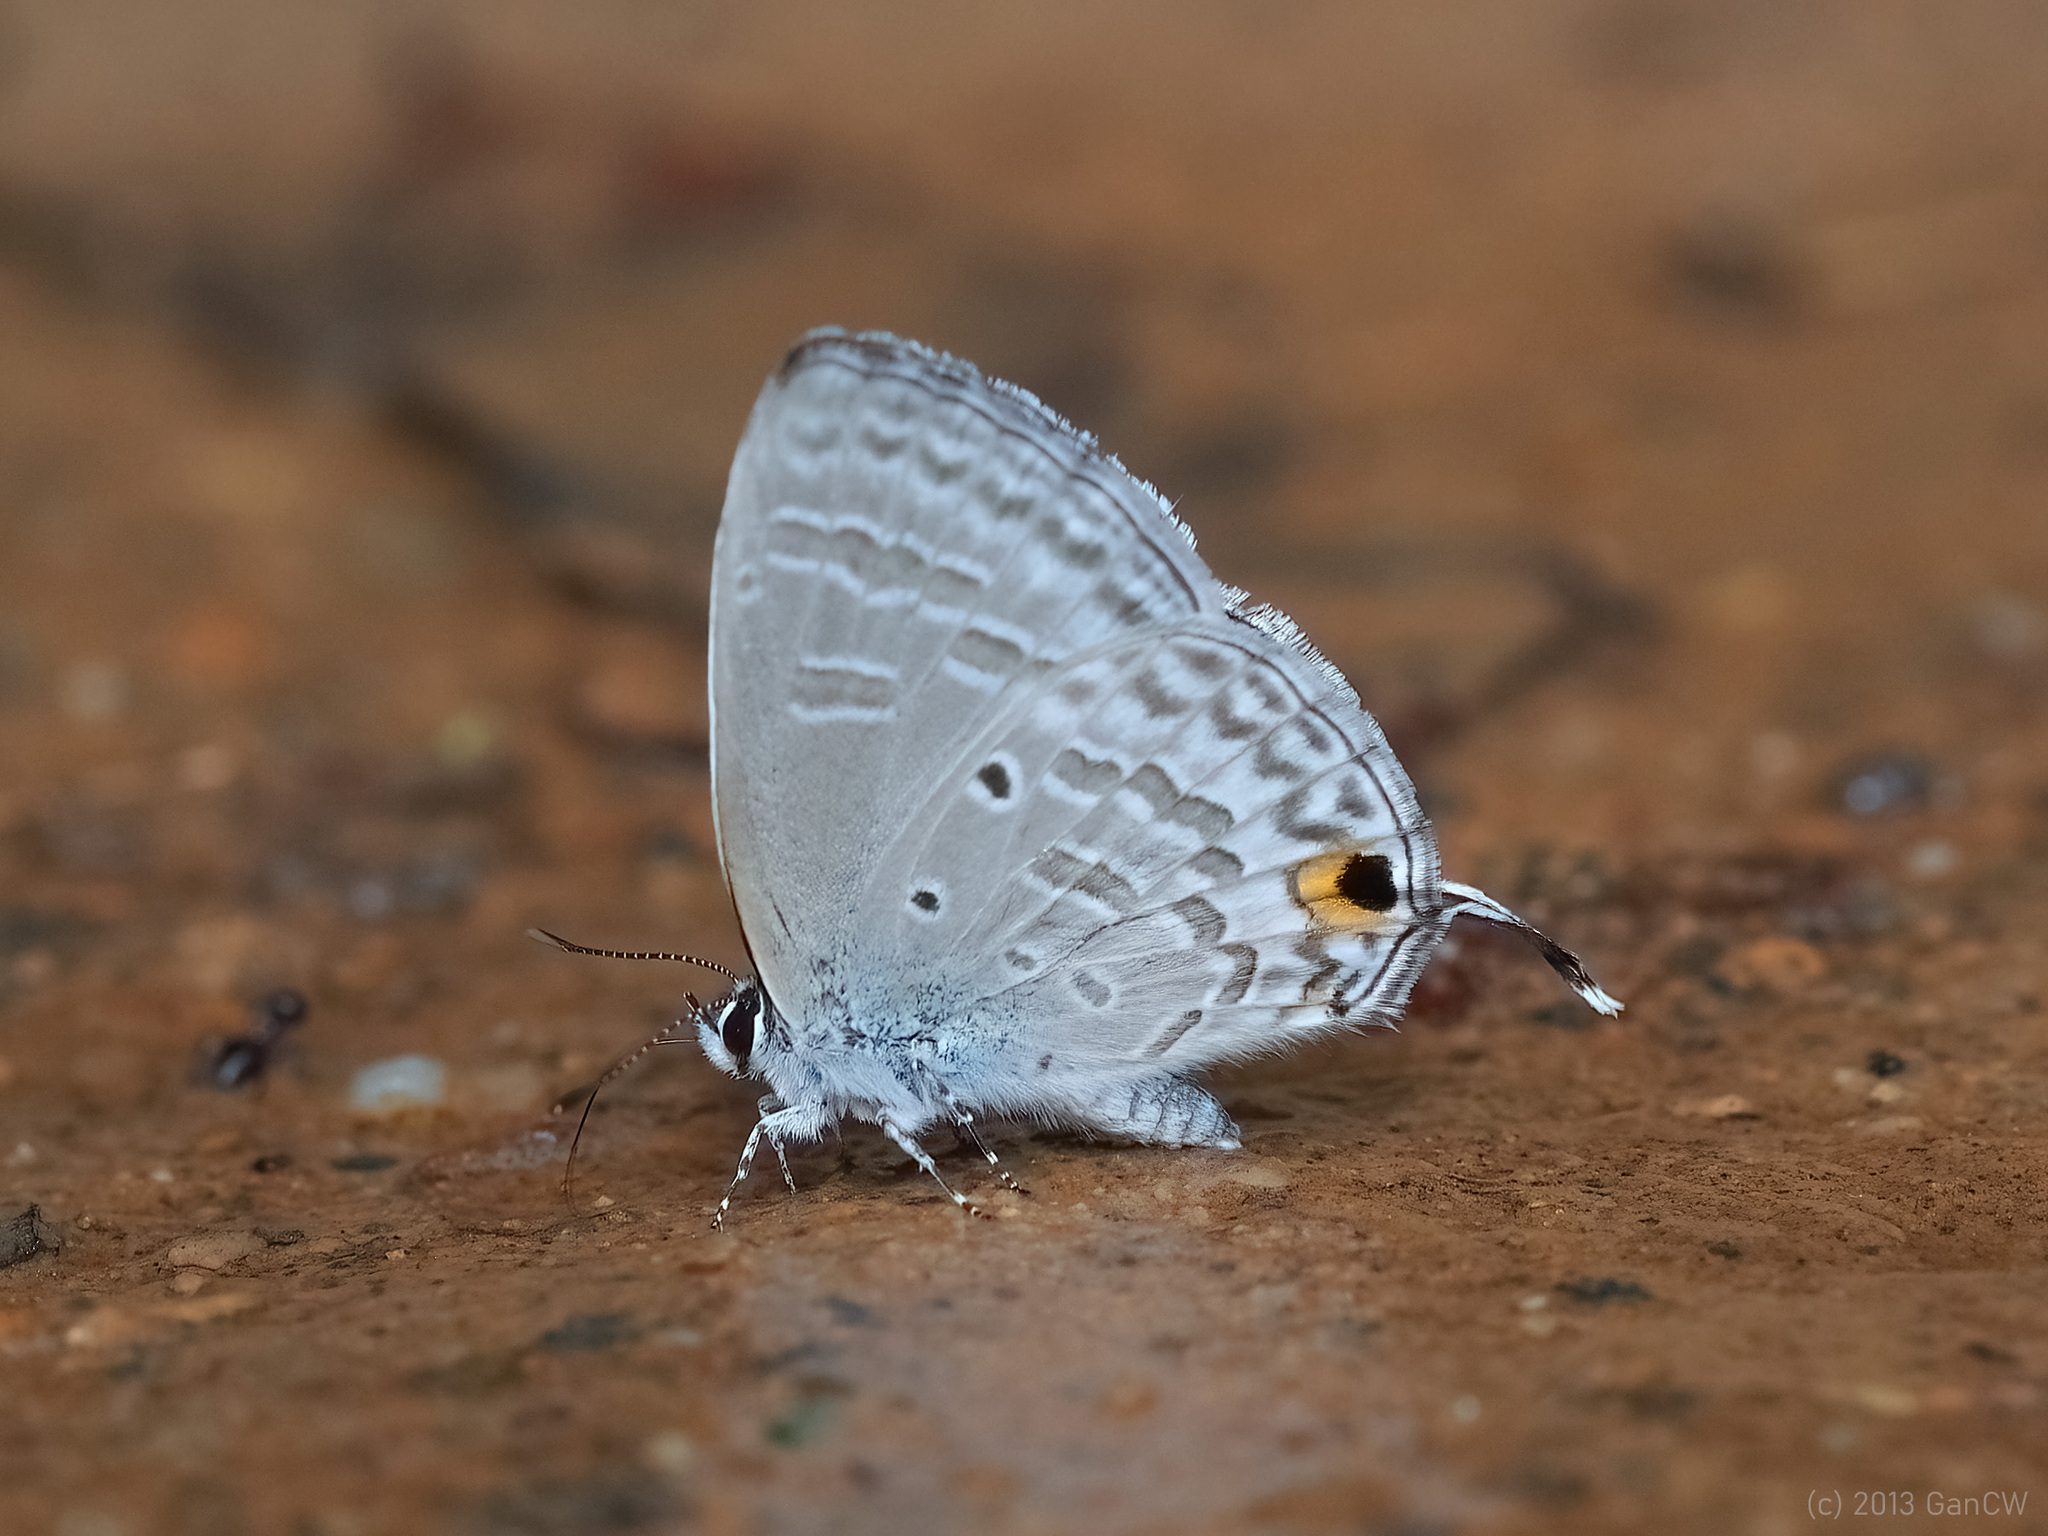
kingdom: Animalia
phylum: Arthropoda
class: Insecta
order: Lepidoptera
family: Lycaenidae
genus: Catochrysops
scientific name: Catochrysops panormus
